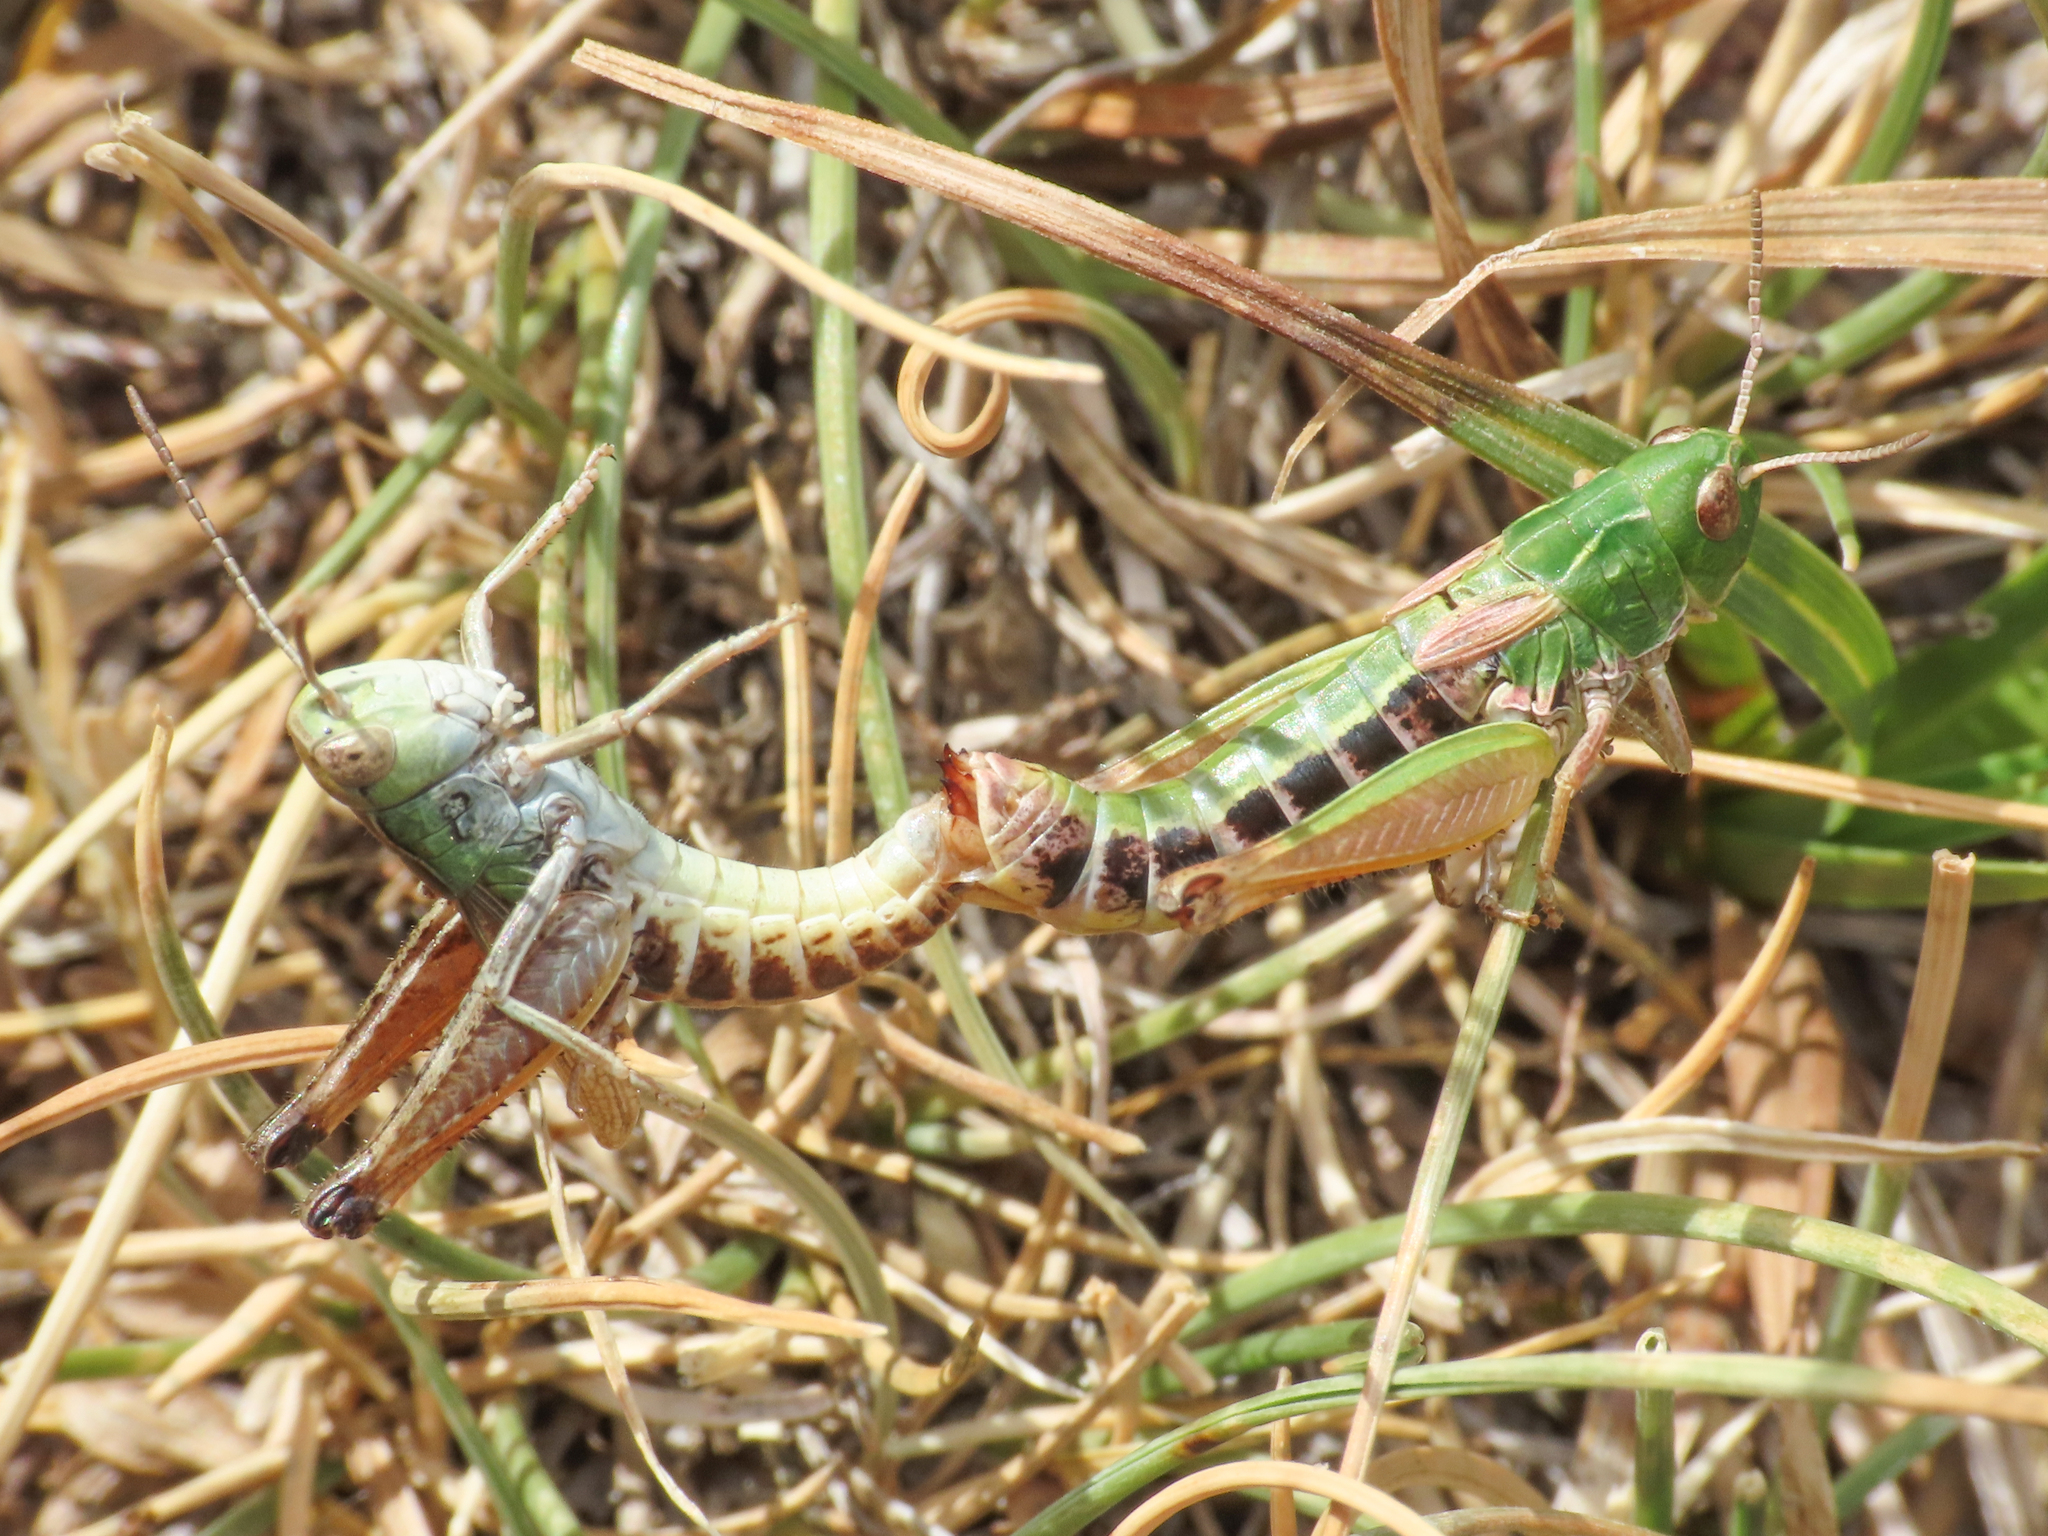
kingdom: Animalia
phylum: Arthropoda
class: Insecta
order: Orthoptera
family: Acrididae
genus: Stenobothrus
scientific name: Stenobothrus apenninus
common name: Apennine grasshopper
